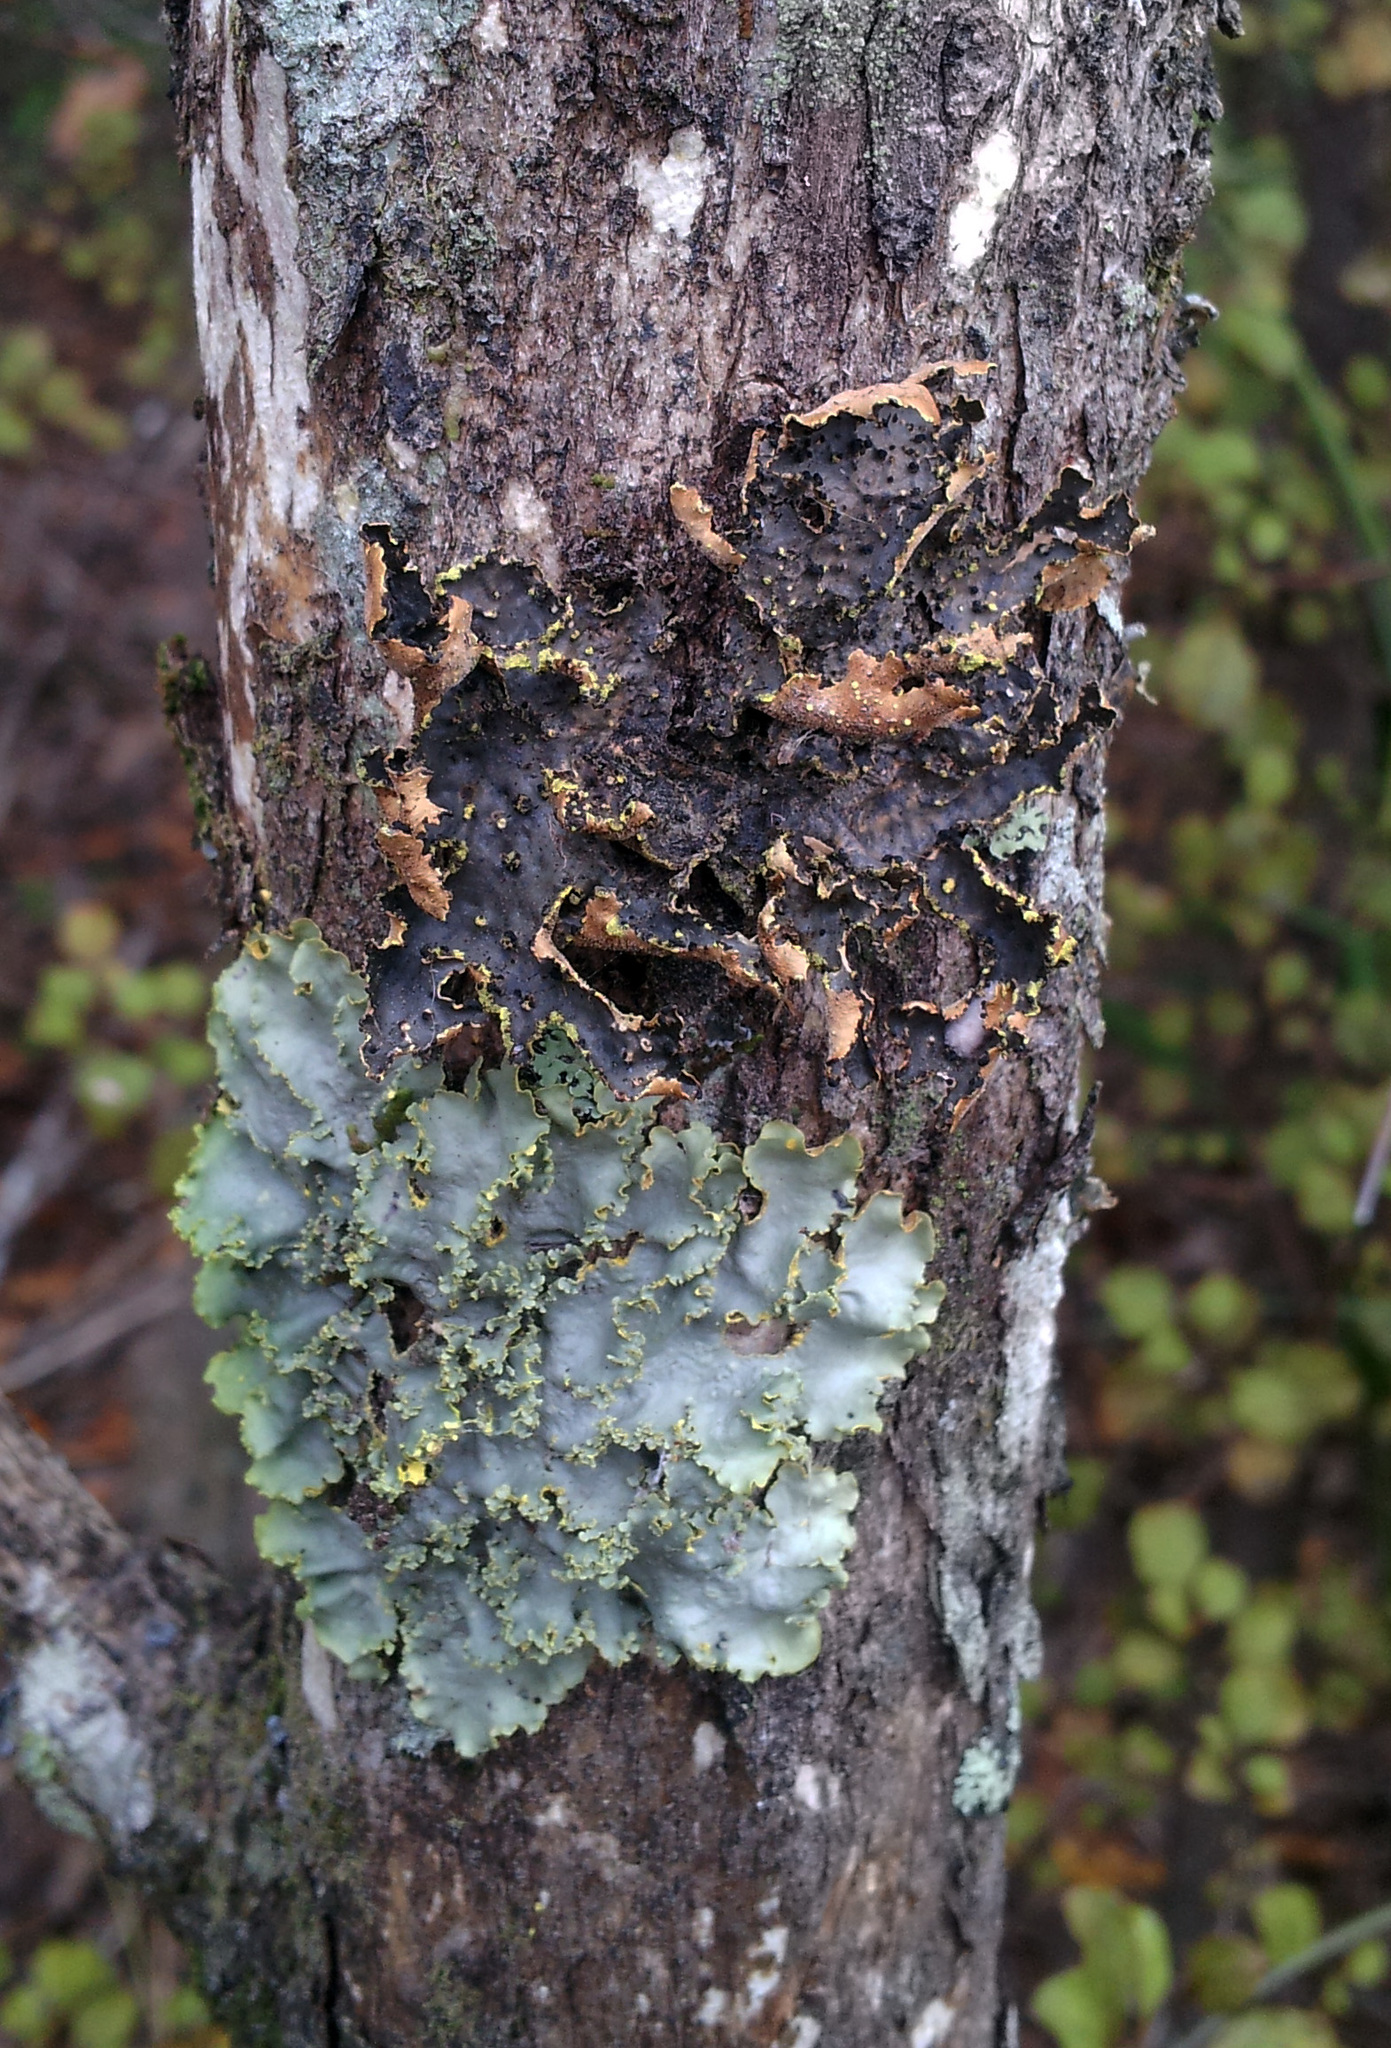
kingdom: Fungi
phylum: Ascomycota
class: Lecanoromycetes
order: Peltigerales
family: Lobariaceae
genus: Pseudocyphellaria
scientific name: Pseudocyphellaria crocata
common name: Golden specklebelly
